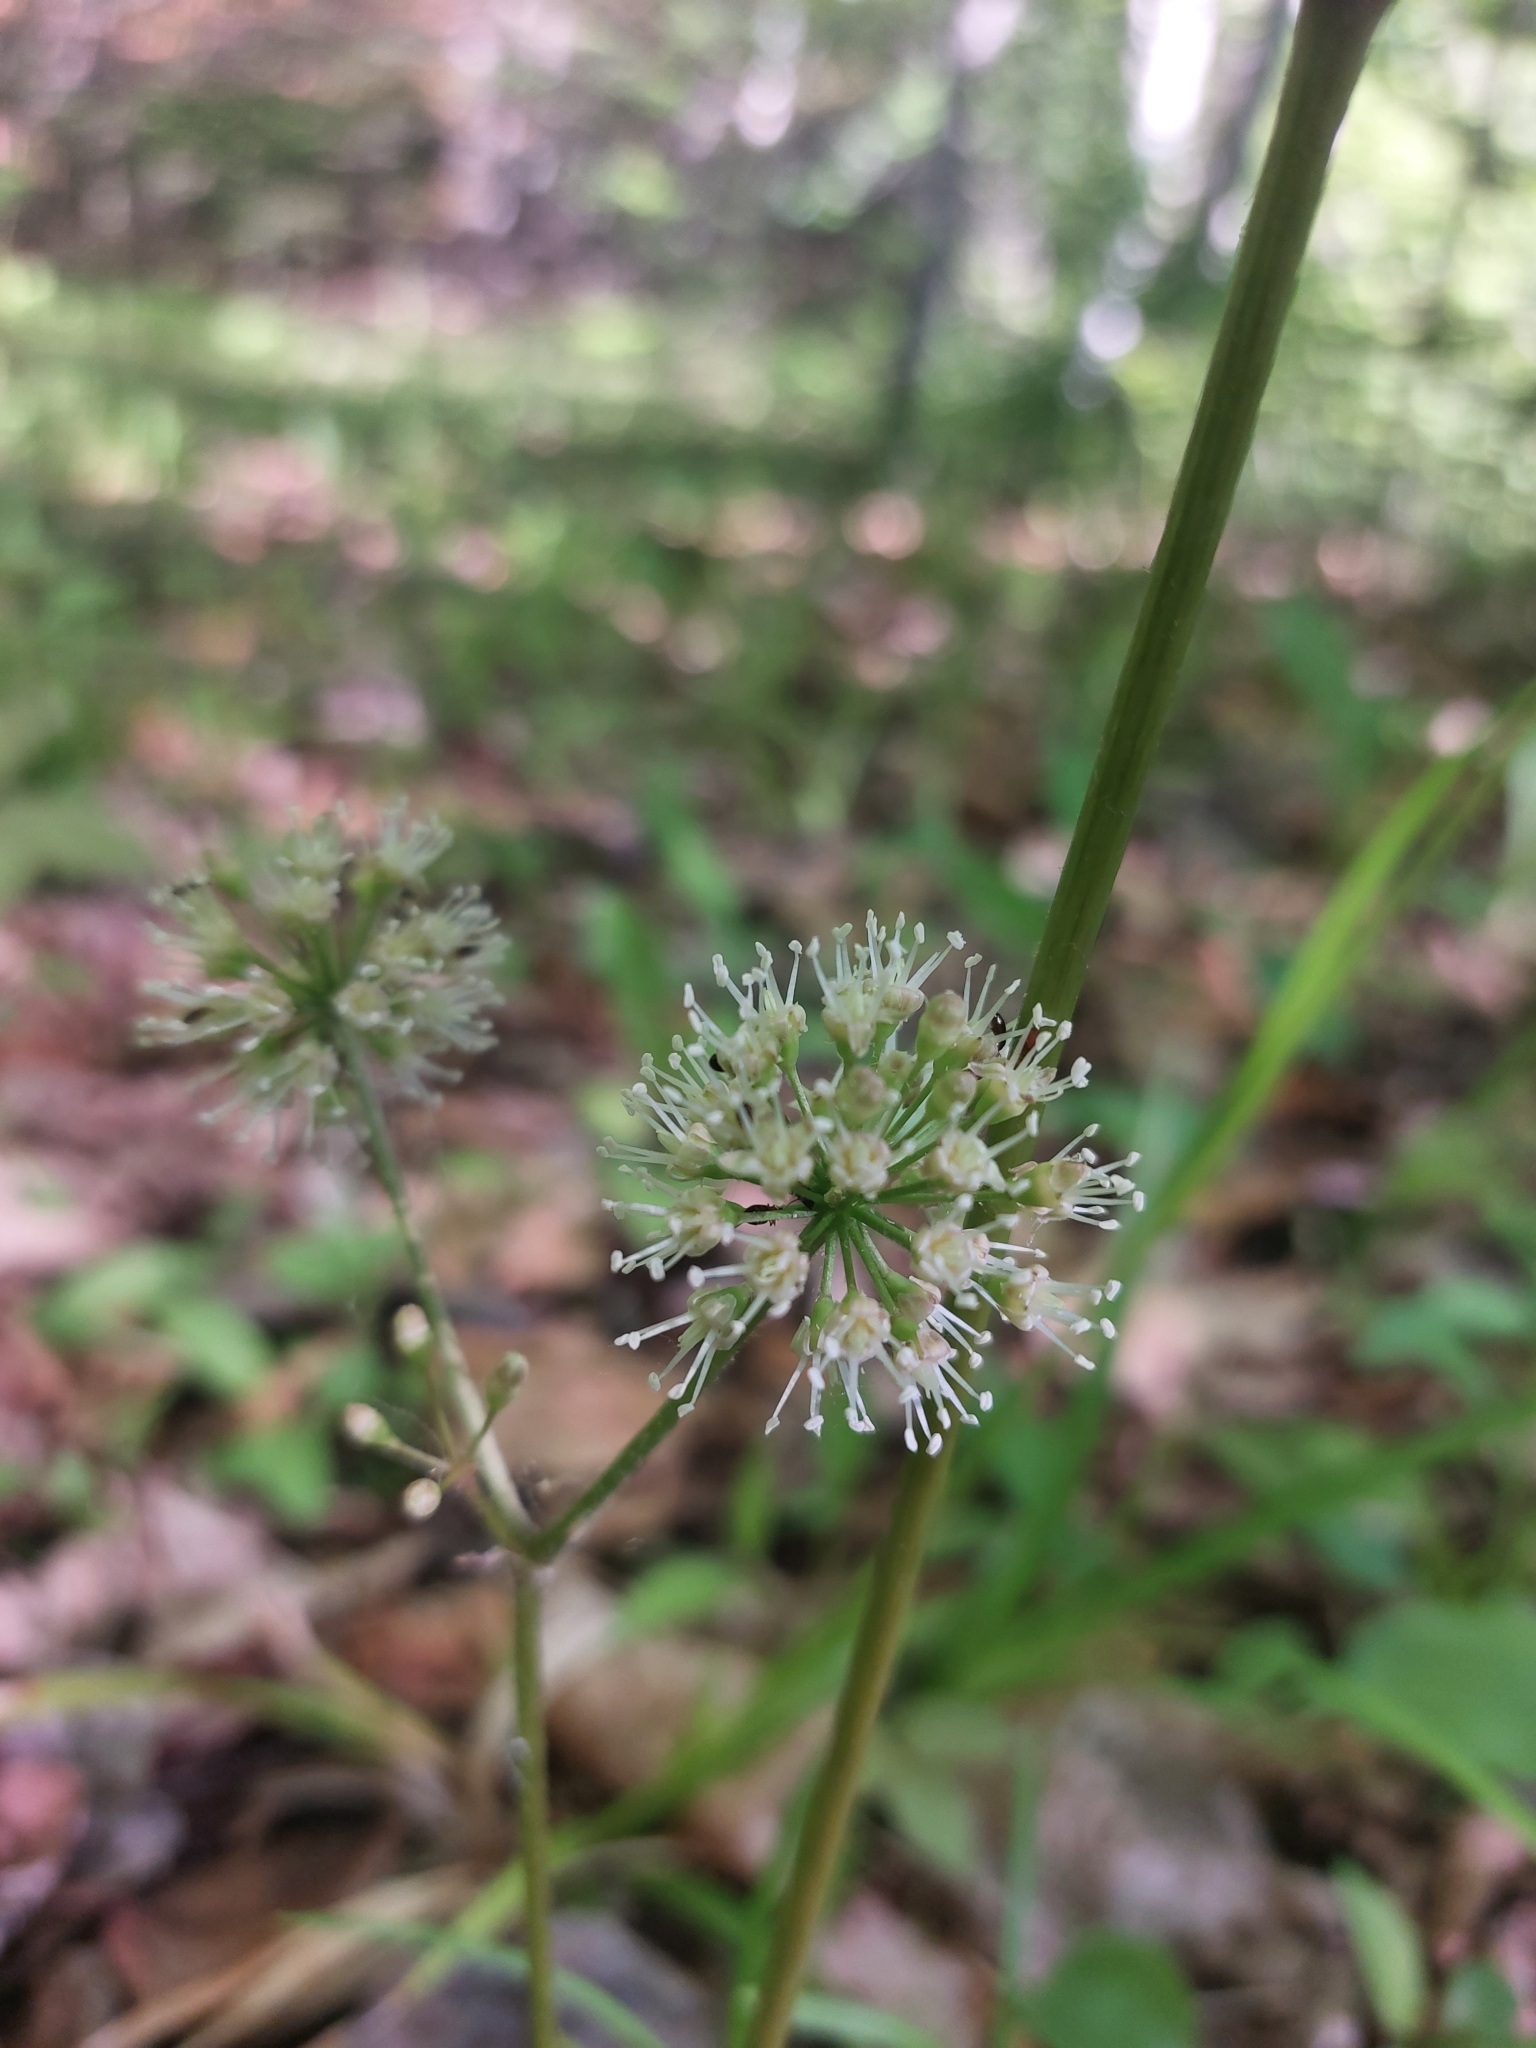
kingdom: Plantae
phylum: Tracheophyta
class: Magnoliopsida
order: Apiales
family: Araliaceae
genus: Aralia
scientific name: Aralia nudicaulis
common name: Wild sarsaparilla
